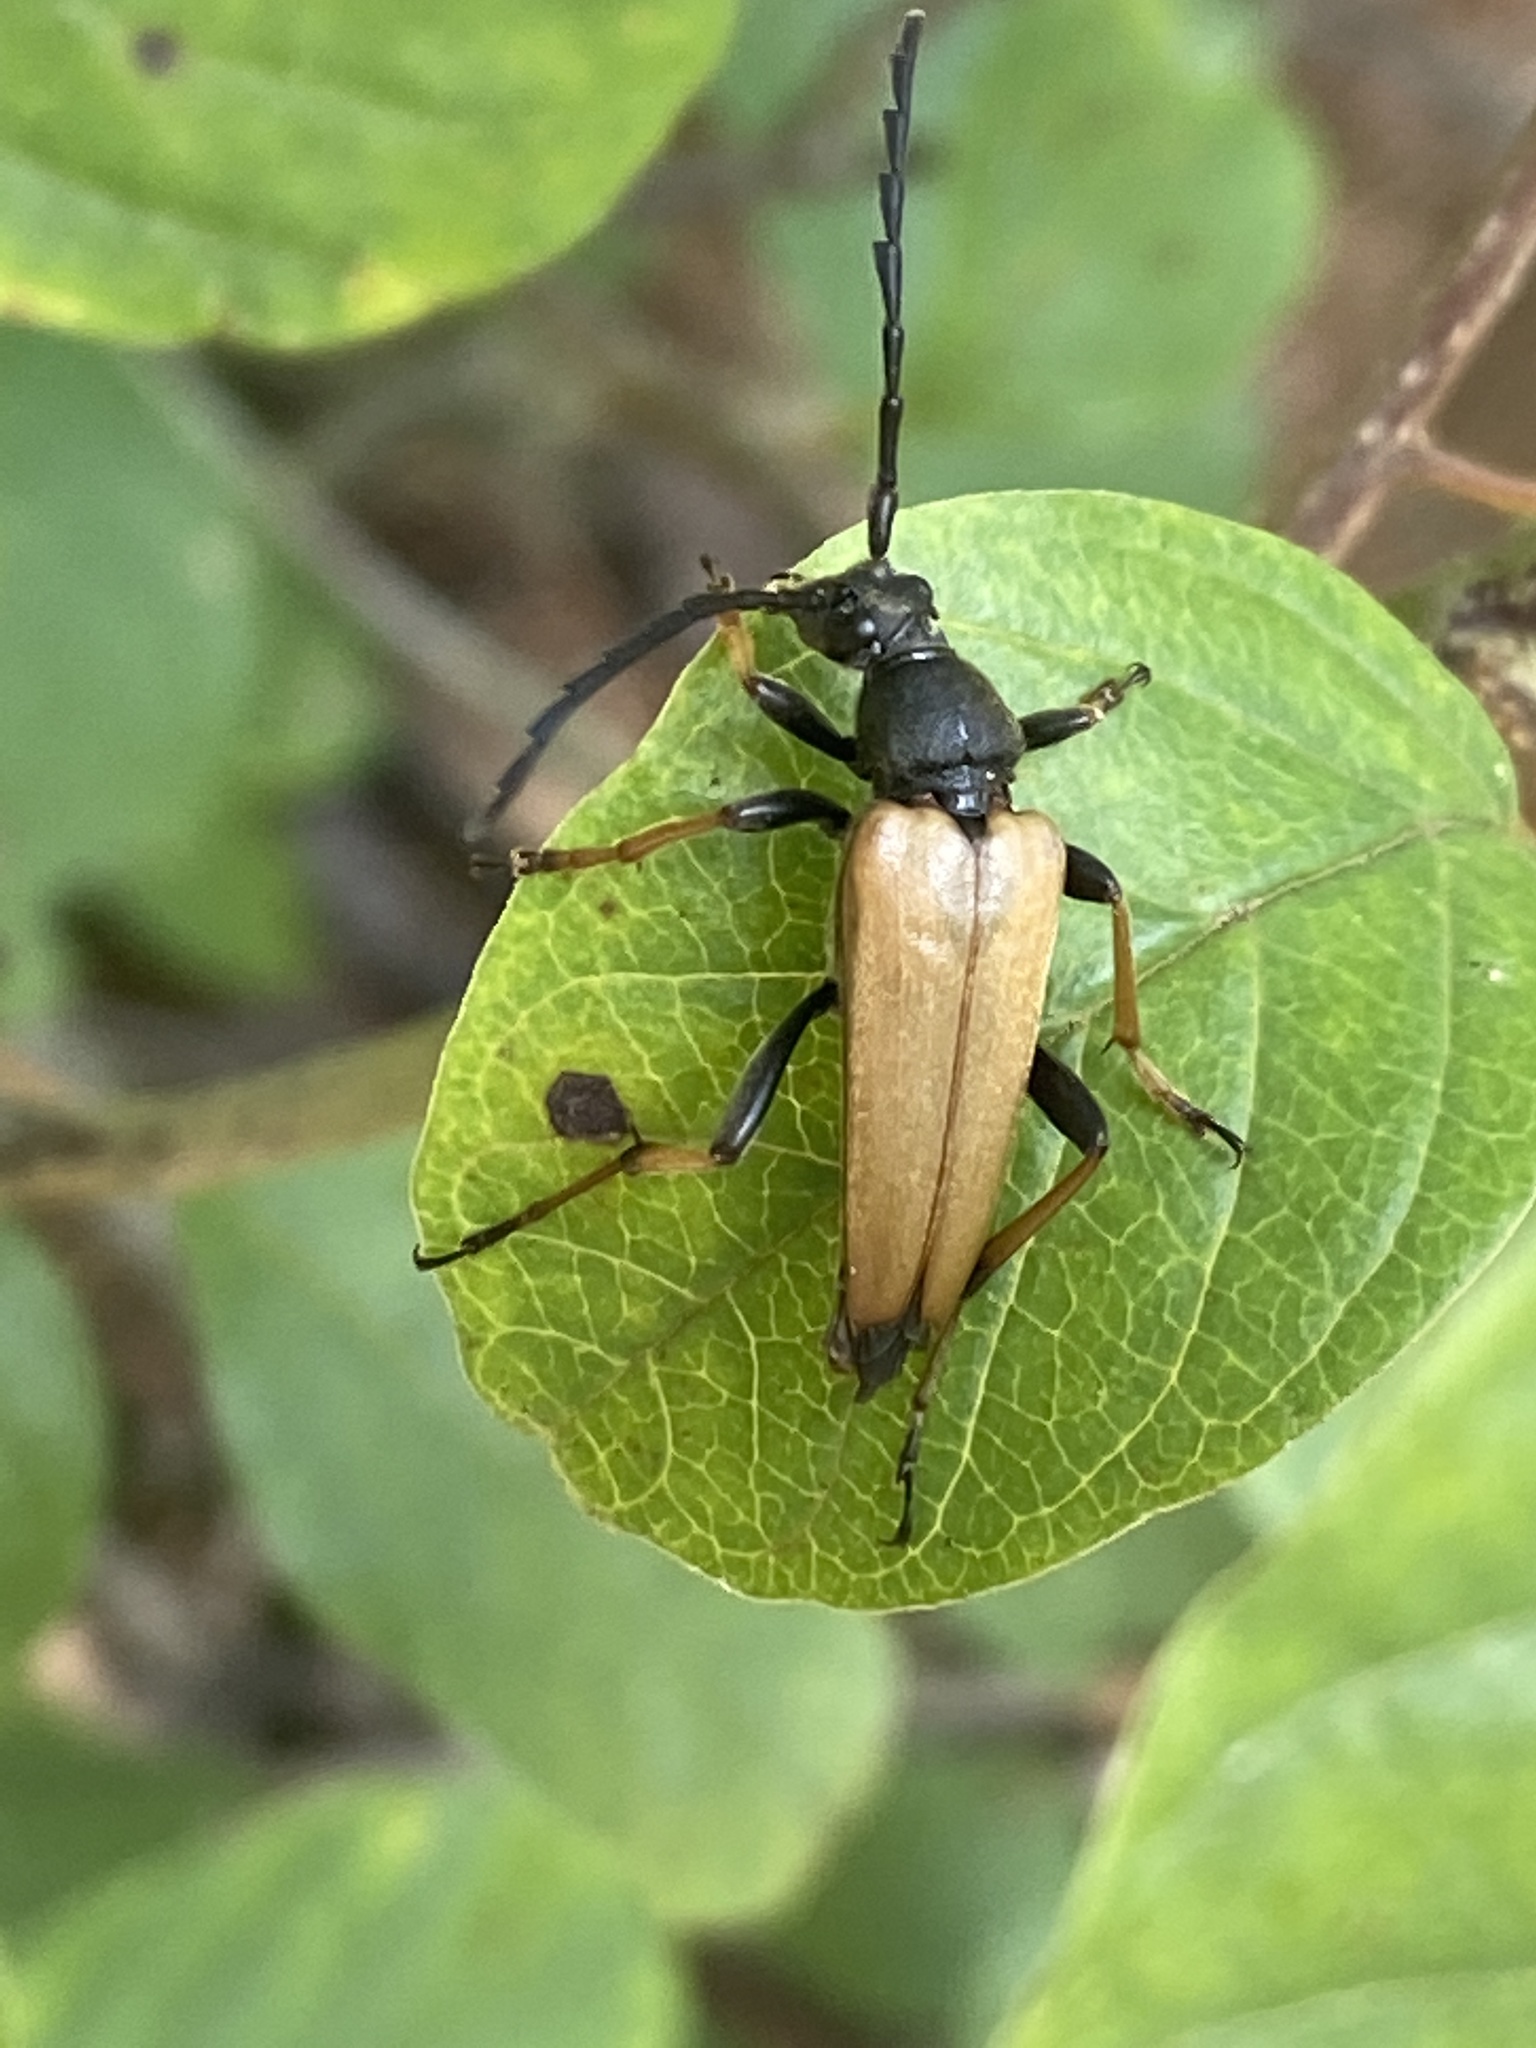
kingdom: Animalia
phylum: Arthropoda
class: Insecta
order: Coleoptera
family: Cerambycidae
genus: Stictoleptura
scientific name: Stictoleptura rubra
